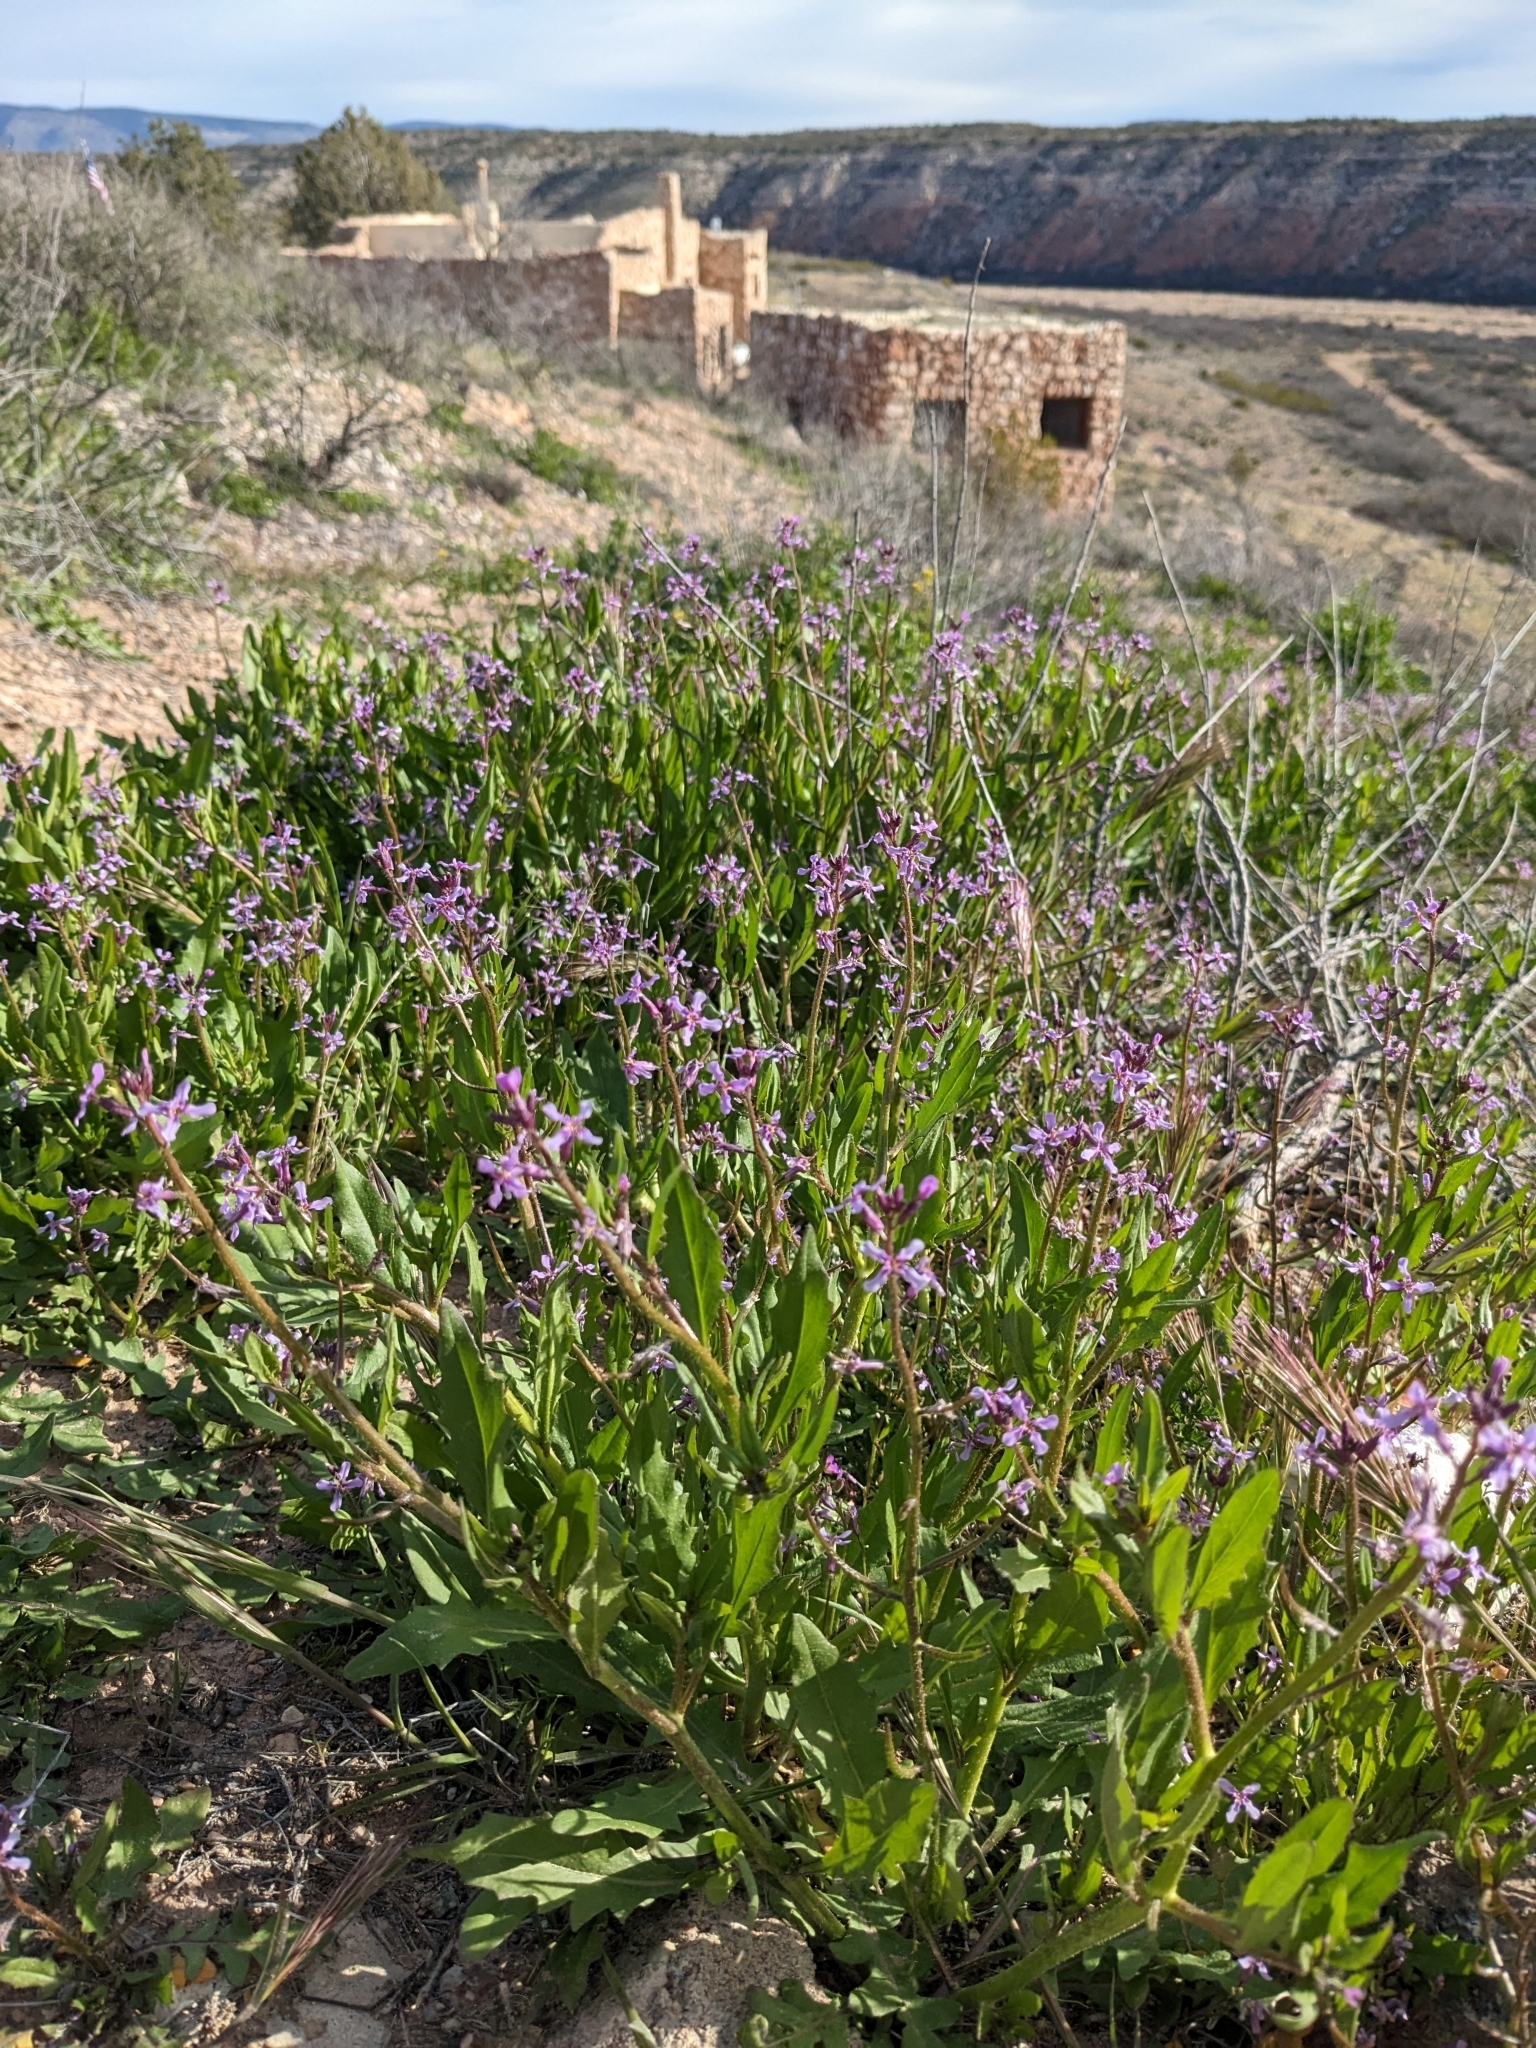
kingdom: Plantae
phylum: Tracheophyta
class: Magnoliopsida
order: Brassicales
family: Brassicaceae
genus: Chorispora
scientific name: Chorispora tenella
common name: Crossflower
